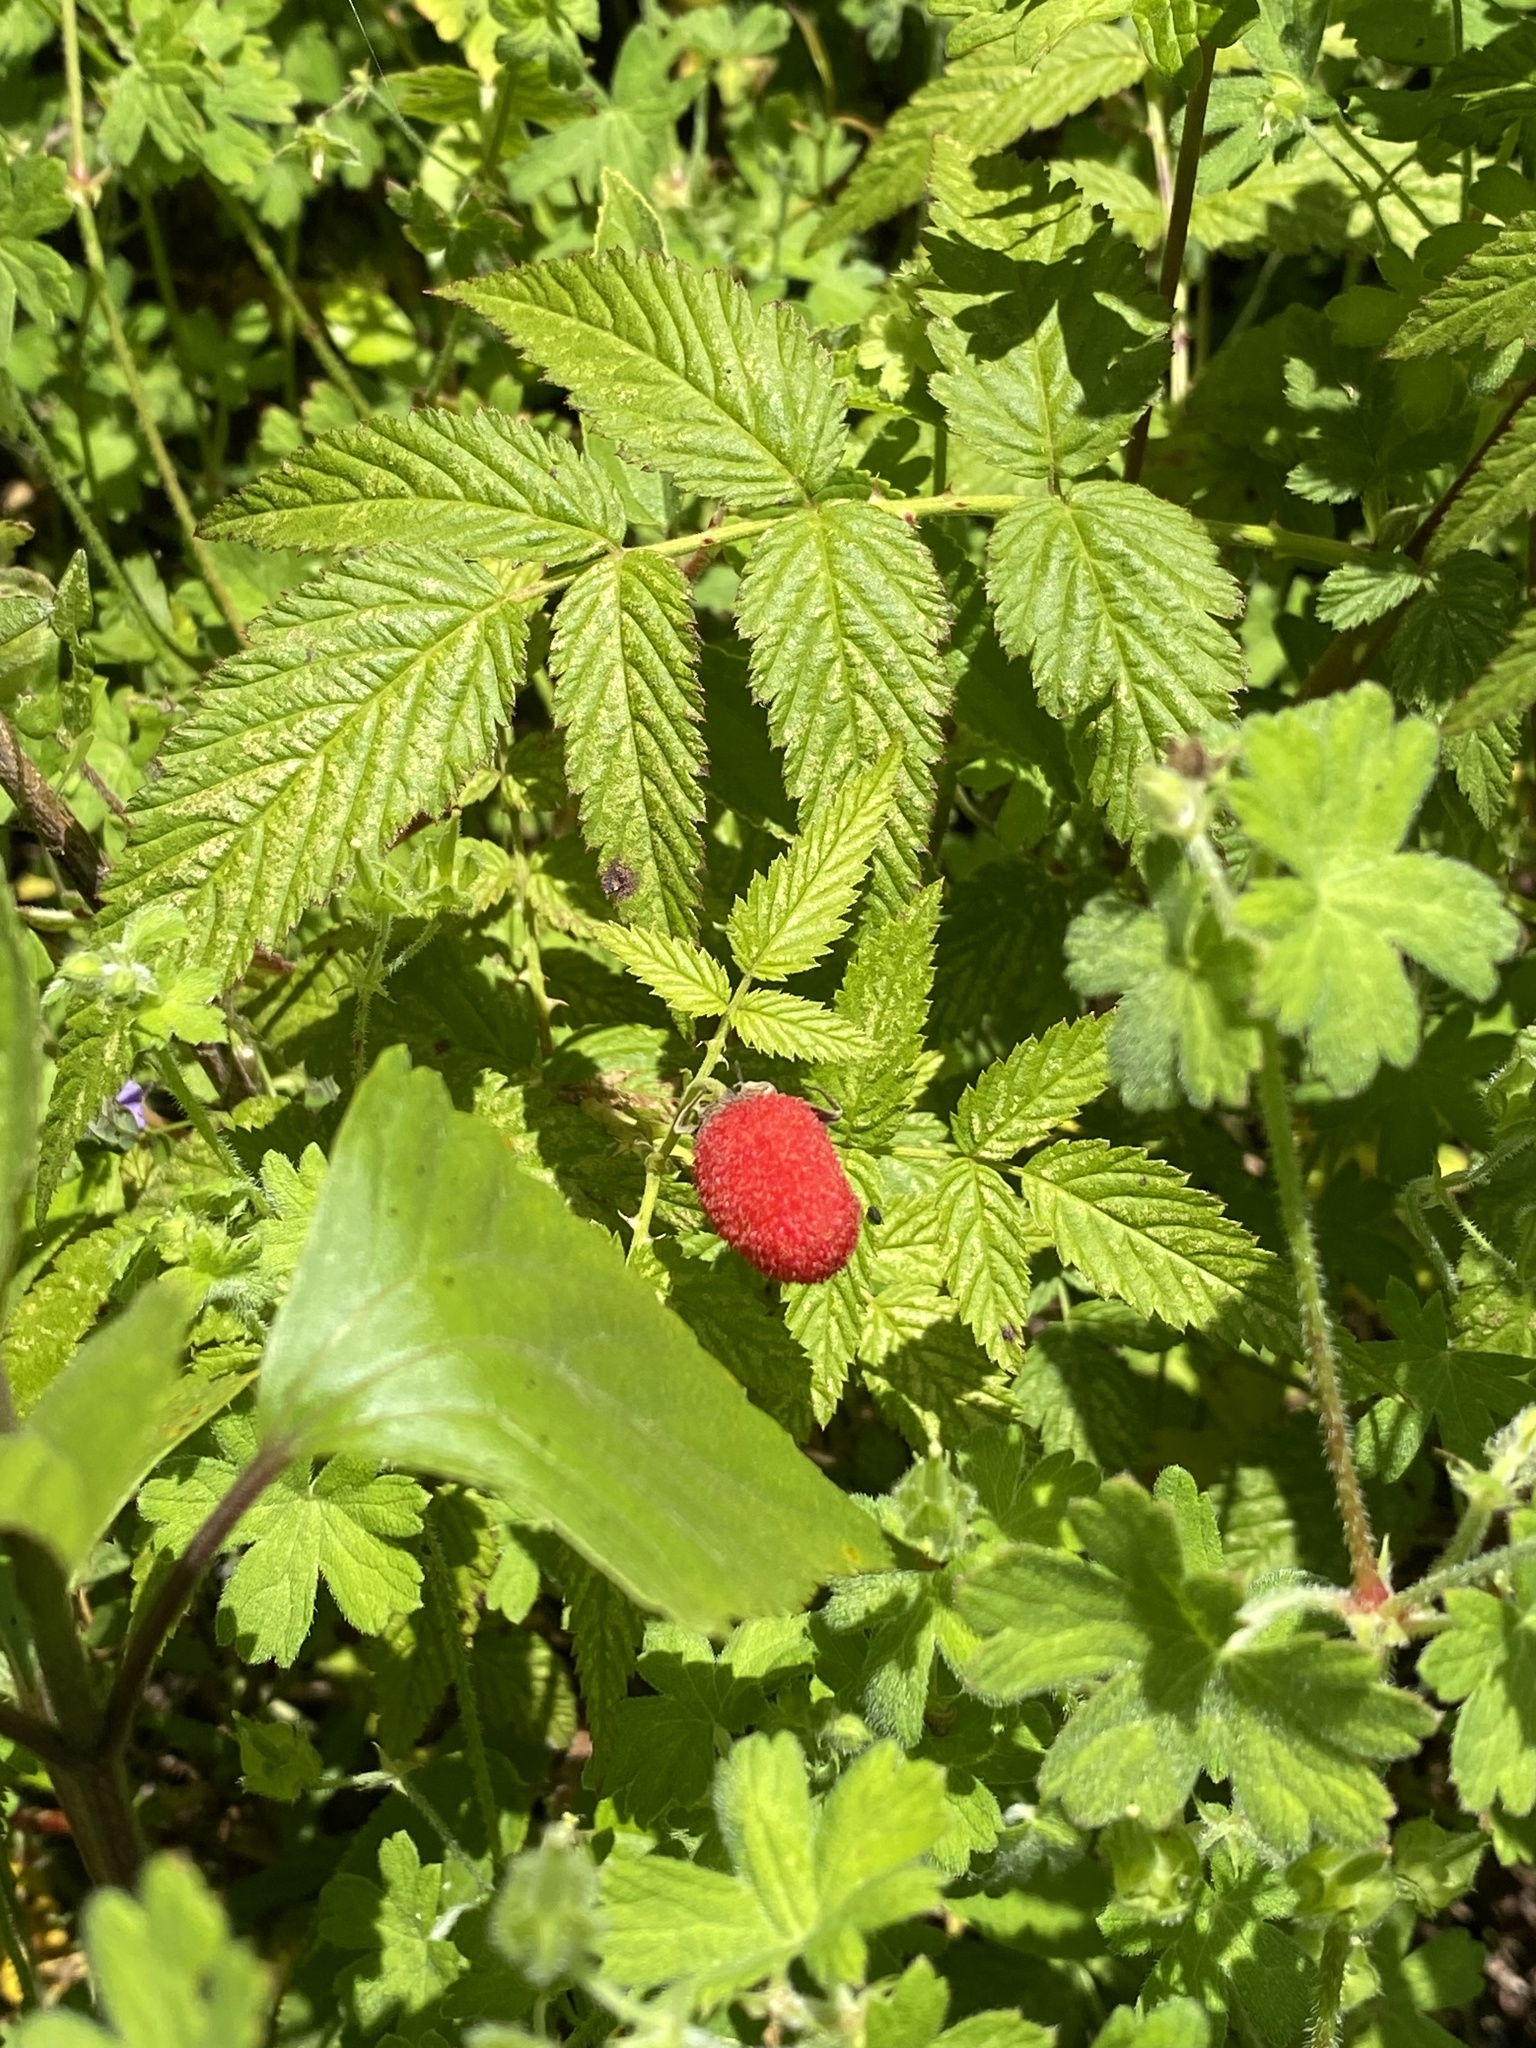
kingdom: Plantae
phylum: Tracheophyta
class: Magnoliopsida
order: Rosales
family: Rosaceae
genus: Rubus
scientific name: Rubus rosifolius
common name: Roseleaf raspberry
